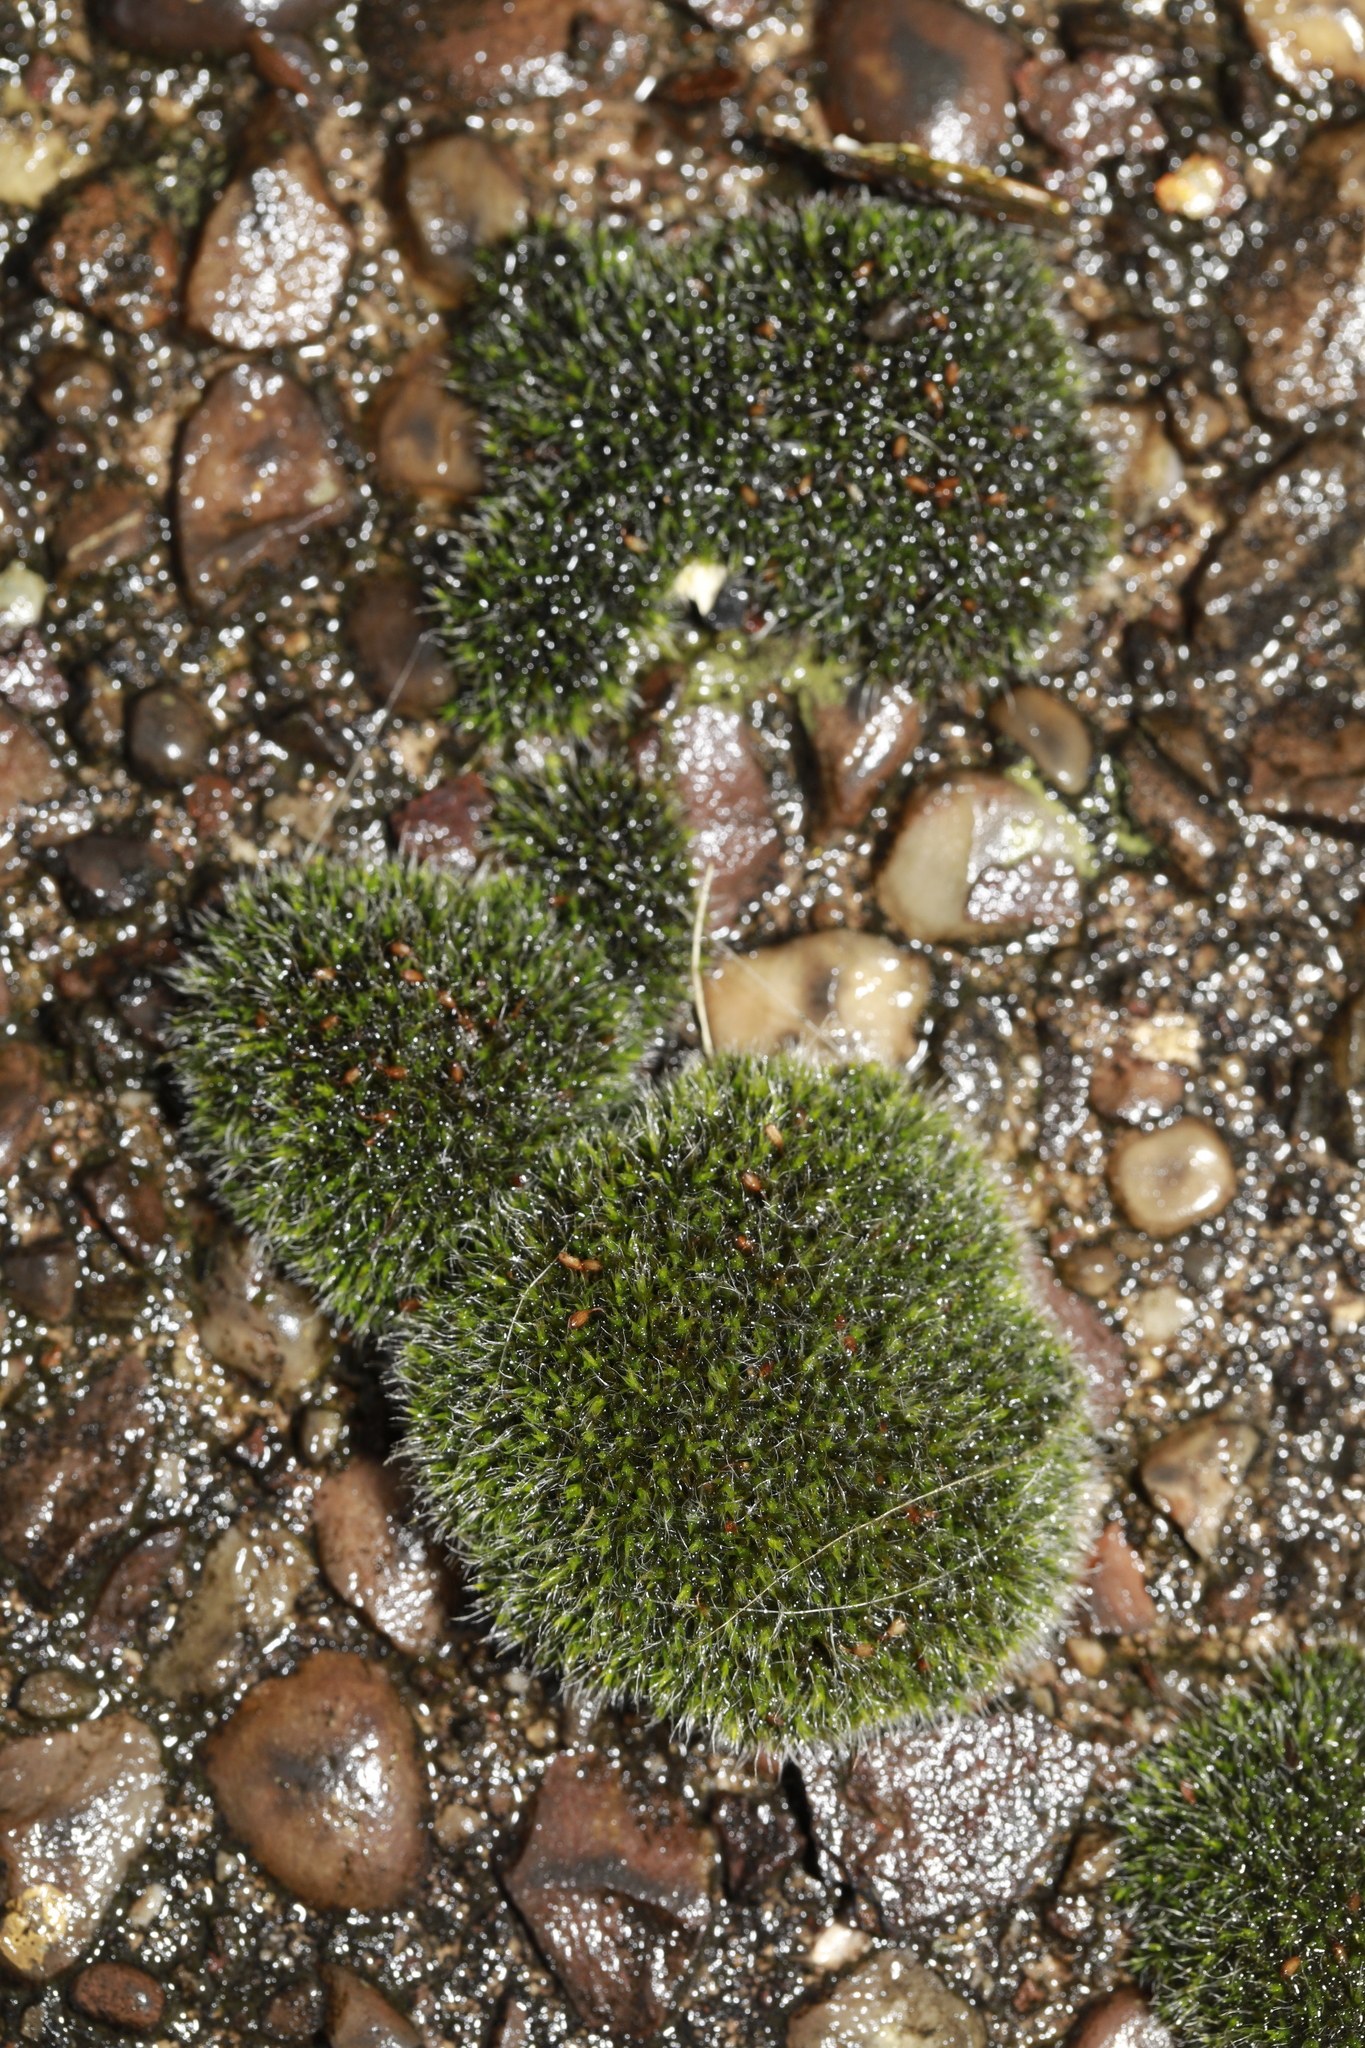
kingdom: Plantae
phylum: Bryophyta
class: Bryopsida
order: Grimmiales
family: Grimmiaceae
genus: Grimmia
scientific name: Grimmia pulvinata
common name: Grey-cushioned grimmia
